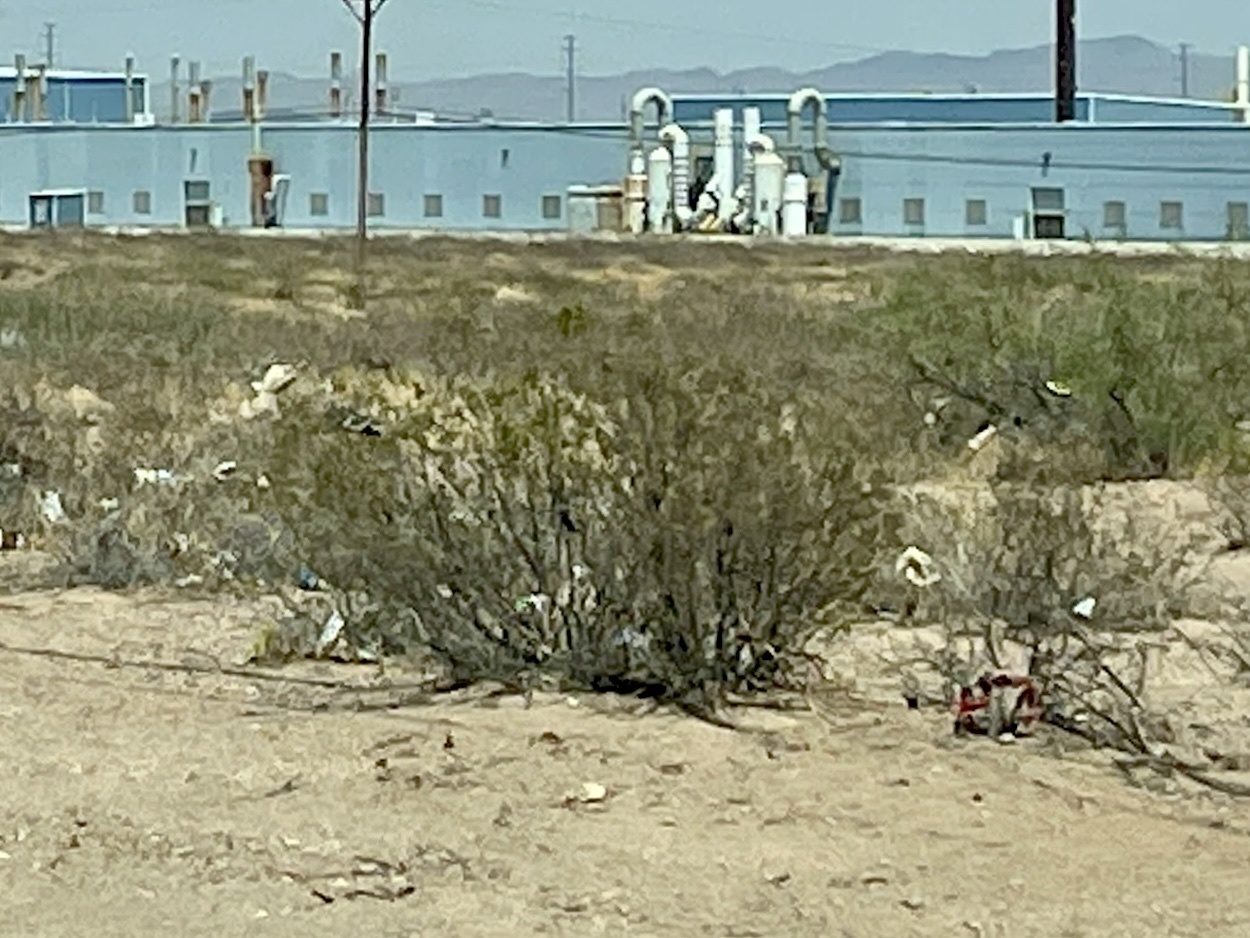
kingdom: Plantae
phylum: Tracheophyta
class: Magnoliopsida
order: Zygophyllales
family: Zygophyllaceae
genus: Larrea
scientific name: Larrea tridentata
